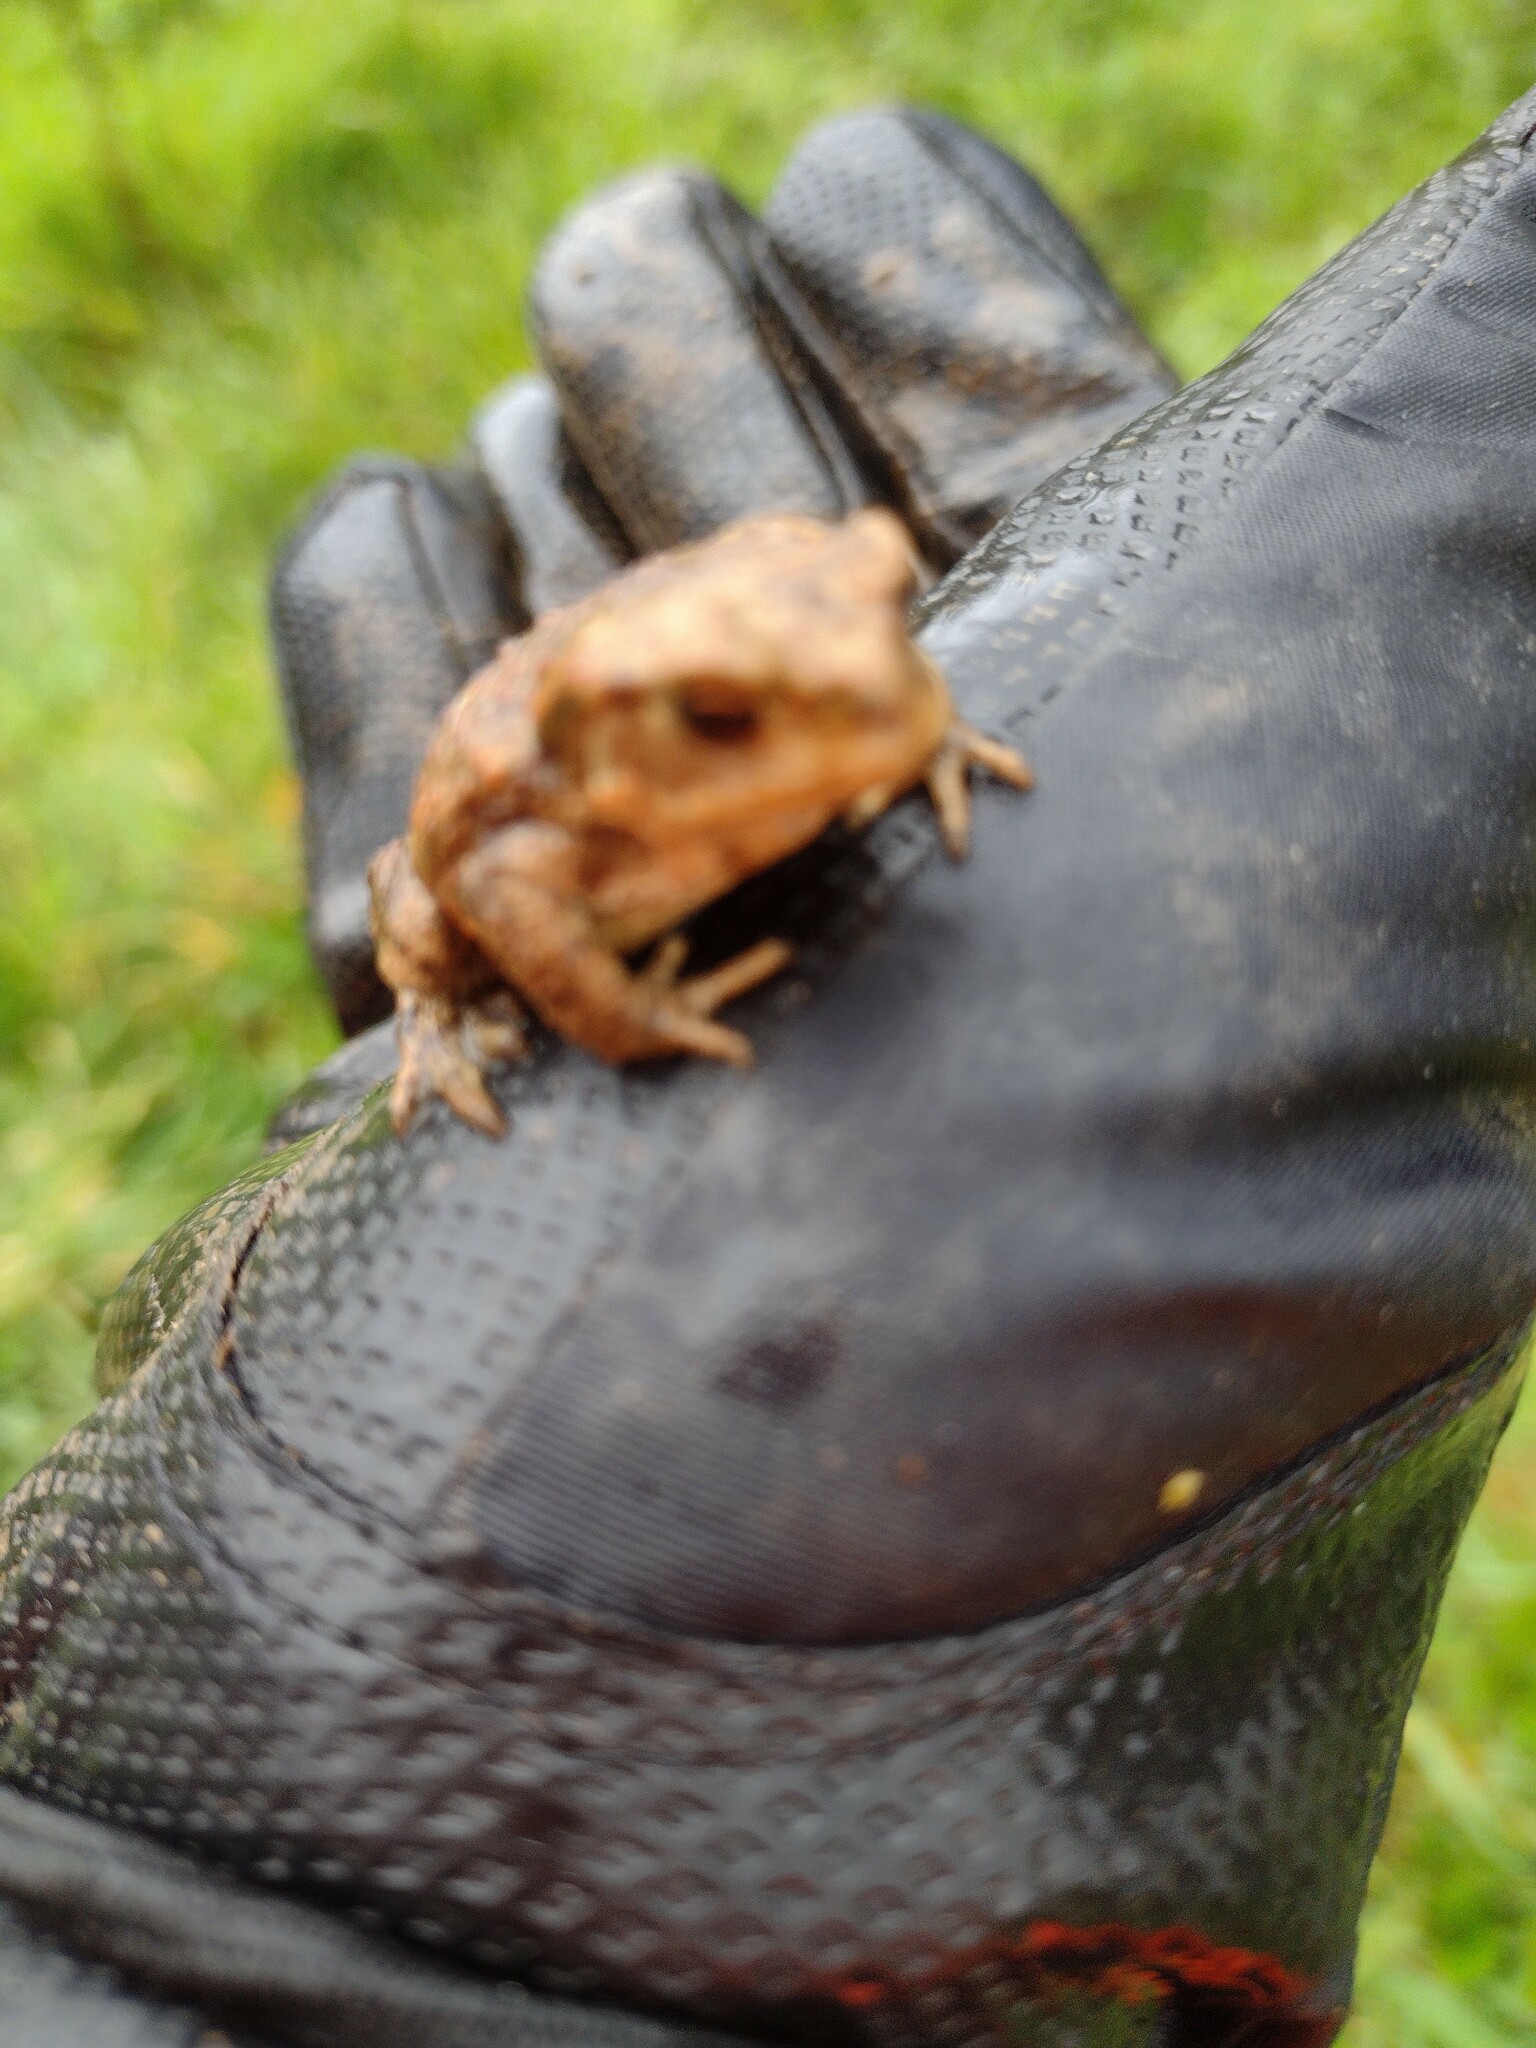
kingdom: Animalia
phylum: Chordata
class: Amphibia
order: Anura
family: Bufonidae
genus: Bufo
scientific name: Bufo bufo
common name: Common toad
